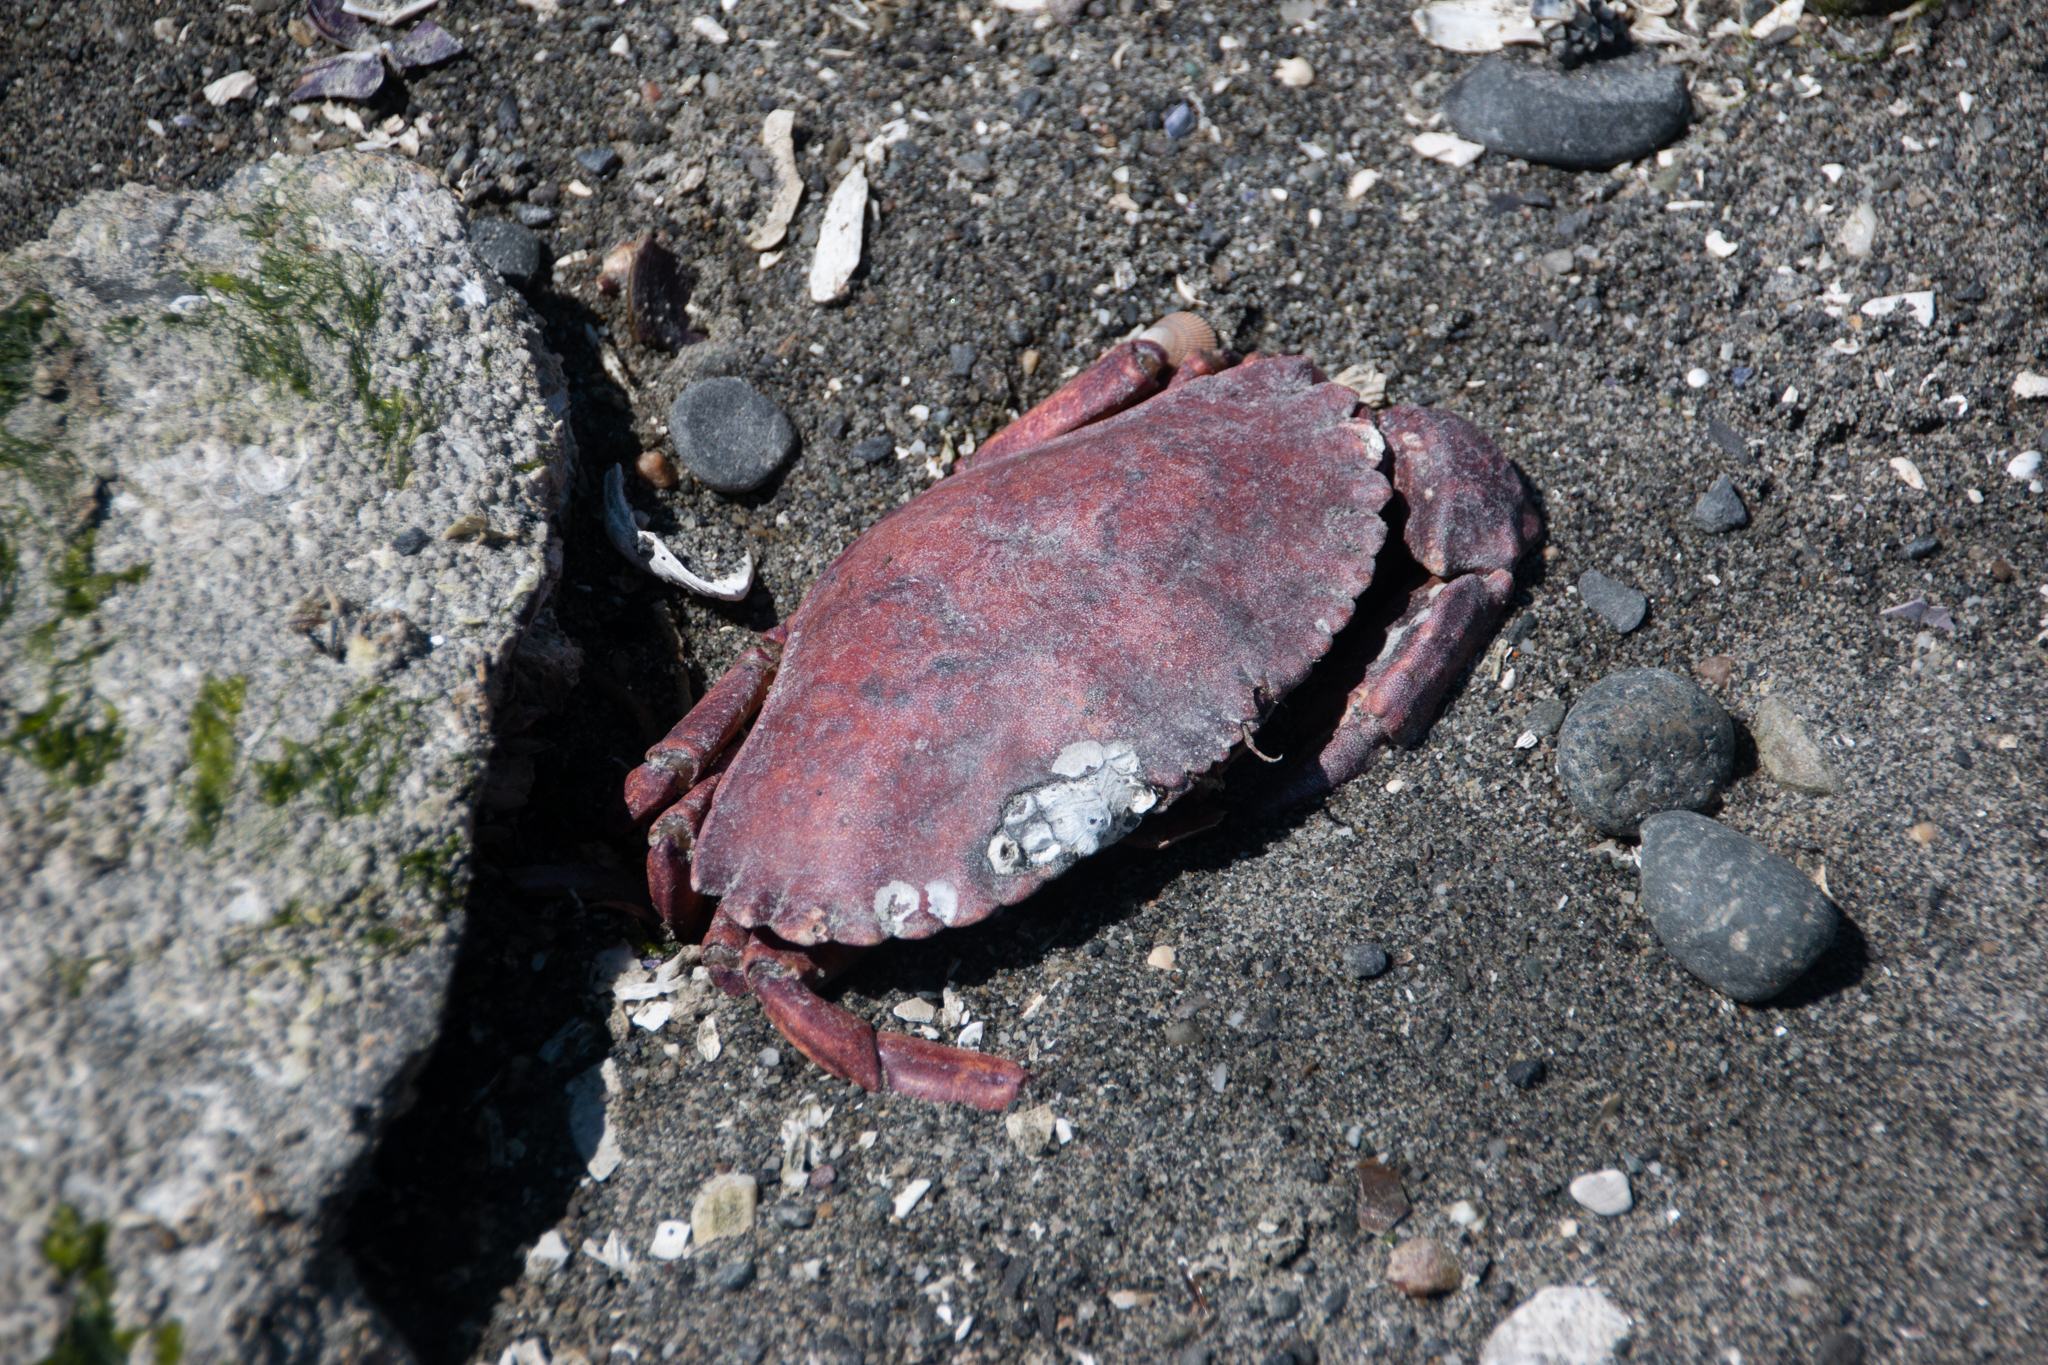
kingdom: Animalia
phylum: Arthropoda
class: Malacostraca
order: Decapoda
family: Cancridae
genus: Cancer
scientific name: Cancer productus
